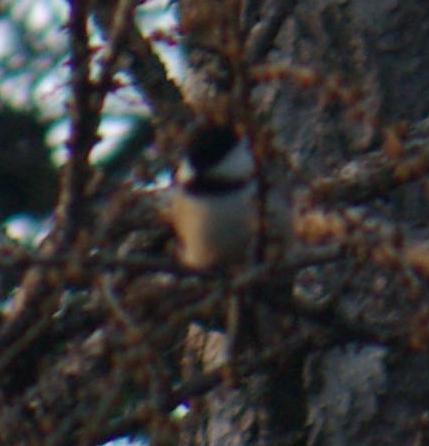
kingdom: Animalia
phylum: Chordata
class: Aves
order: Passeriformes
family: Paridae
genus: Poecile
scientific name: Poecile atricapillus
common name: Black-capped chickadee
